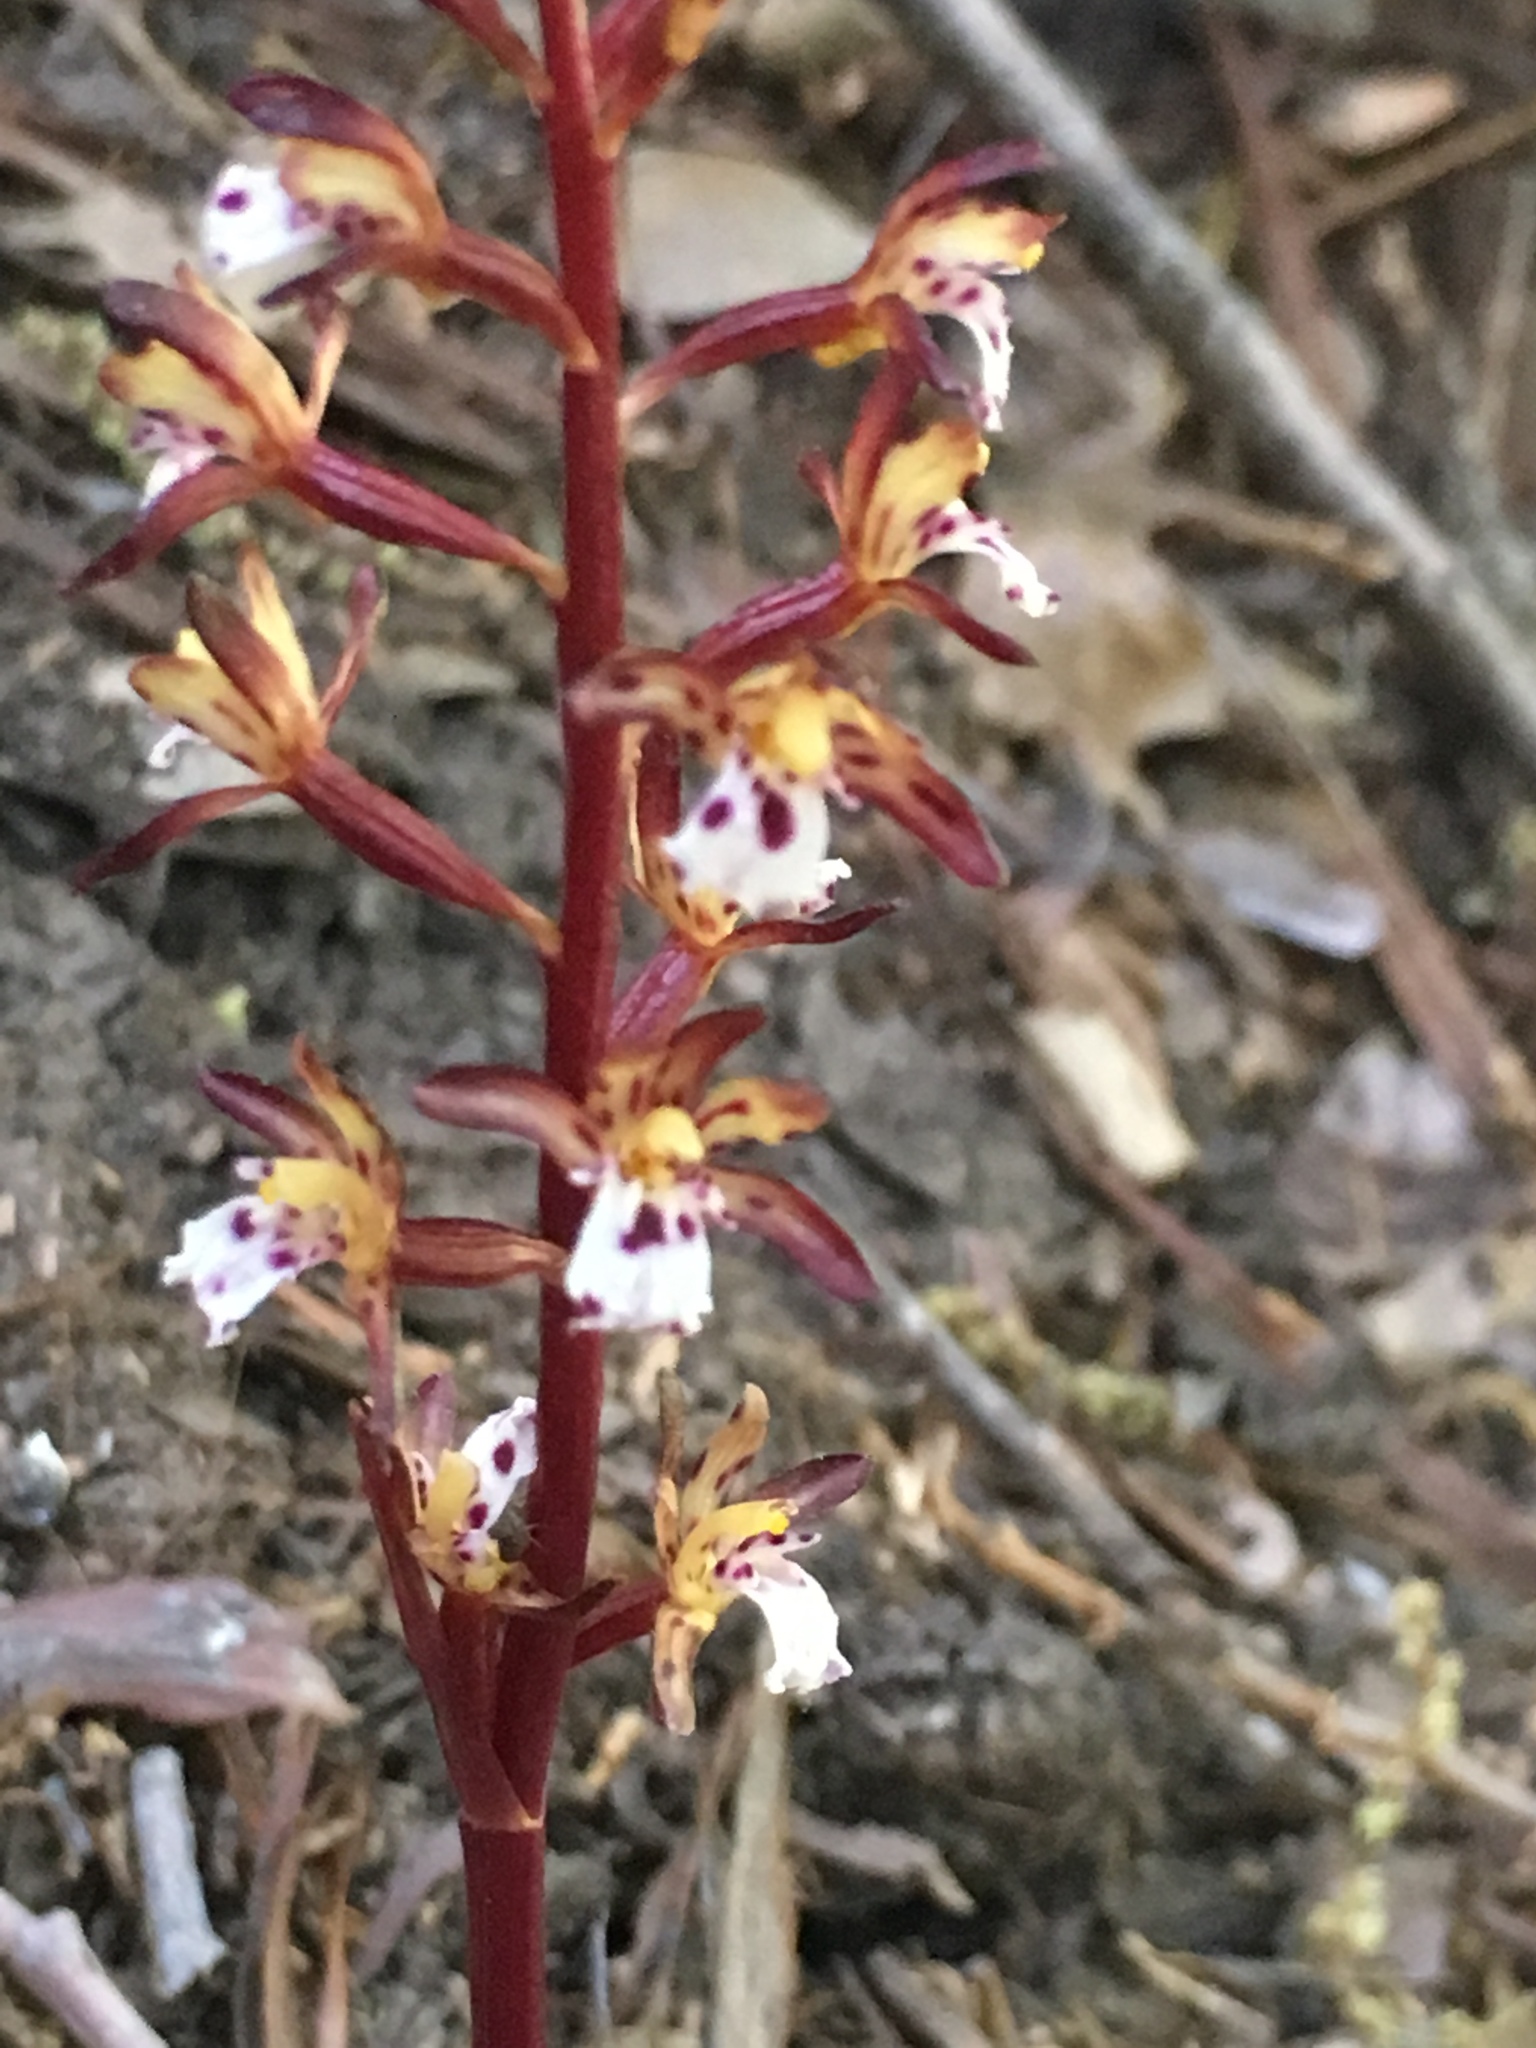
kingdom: Plantae
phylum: Tracheophyta
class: Liliopsida
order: Asparagales
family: Orchidaceae
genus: Corallorhiza
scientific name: Corallorhiza maculata
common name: Spotted coralroot
